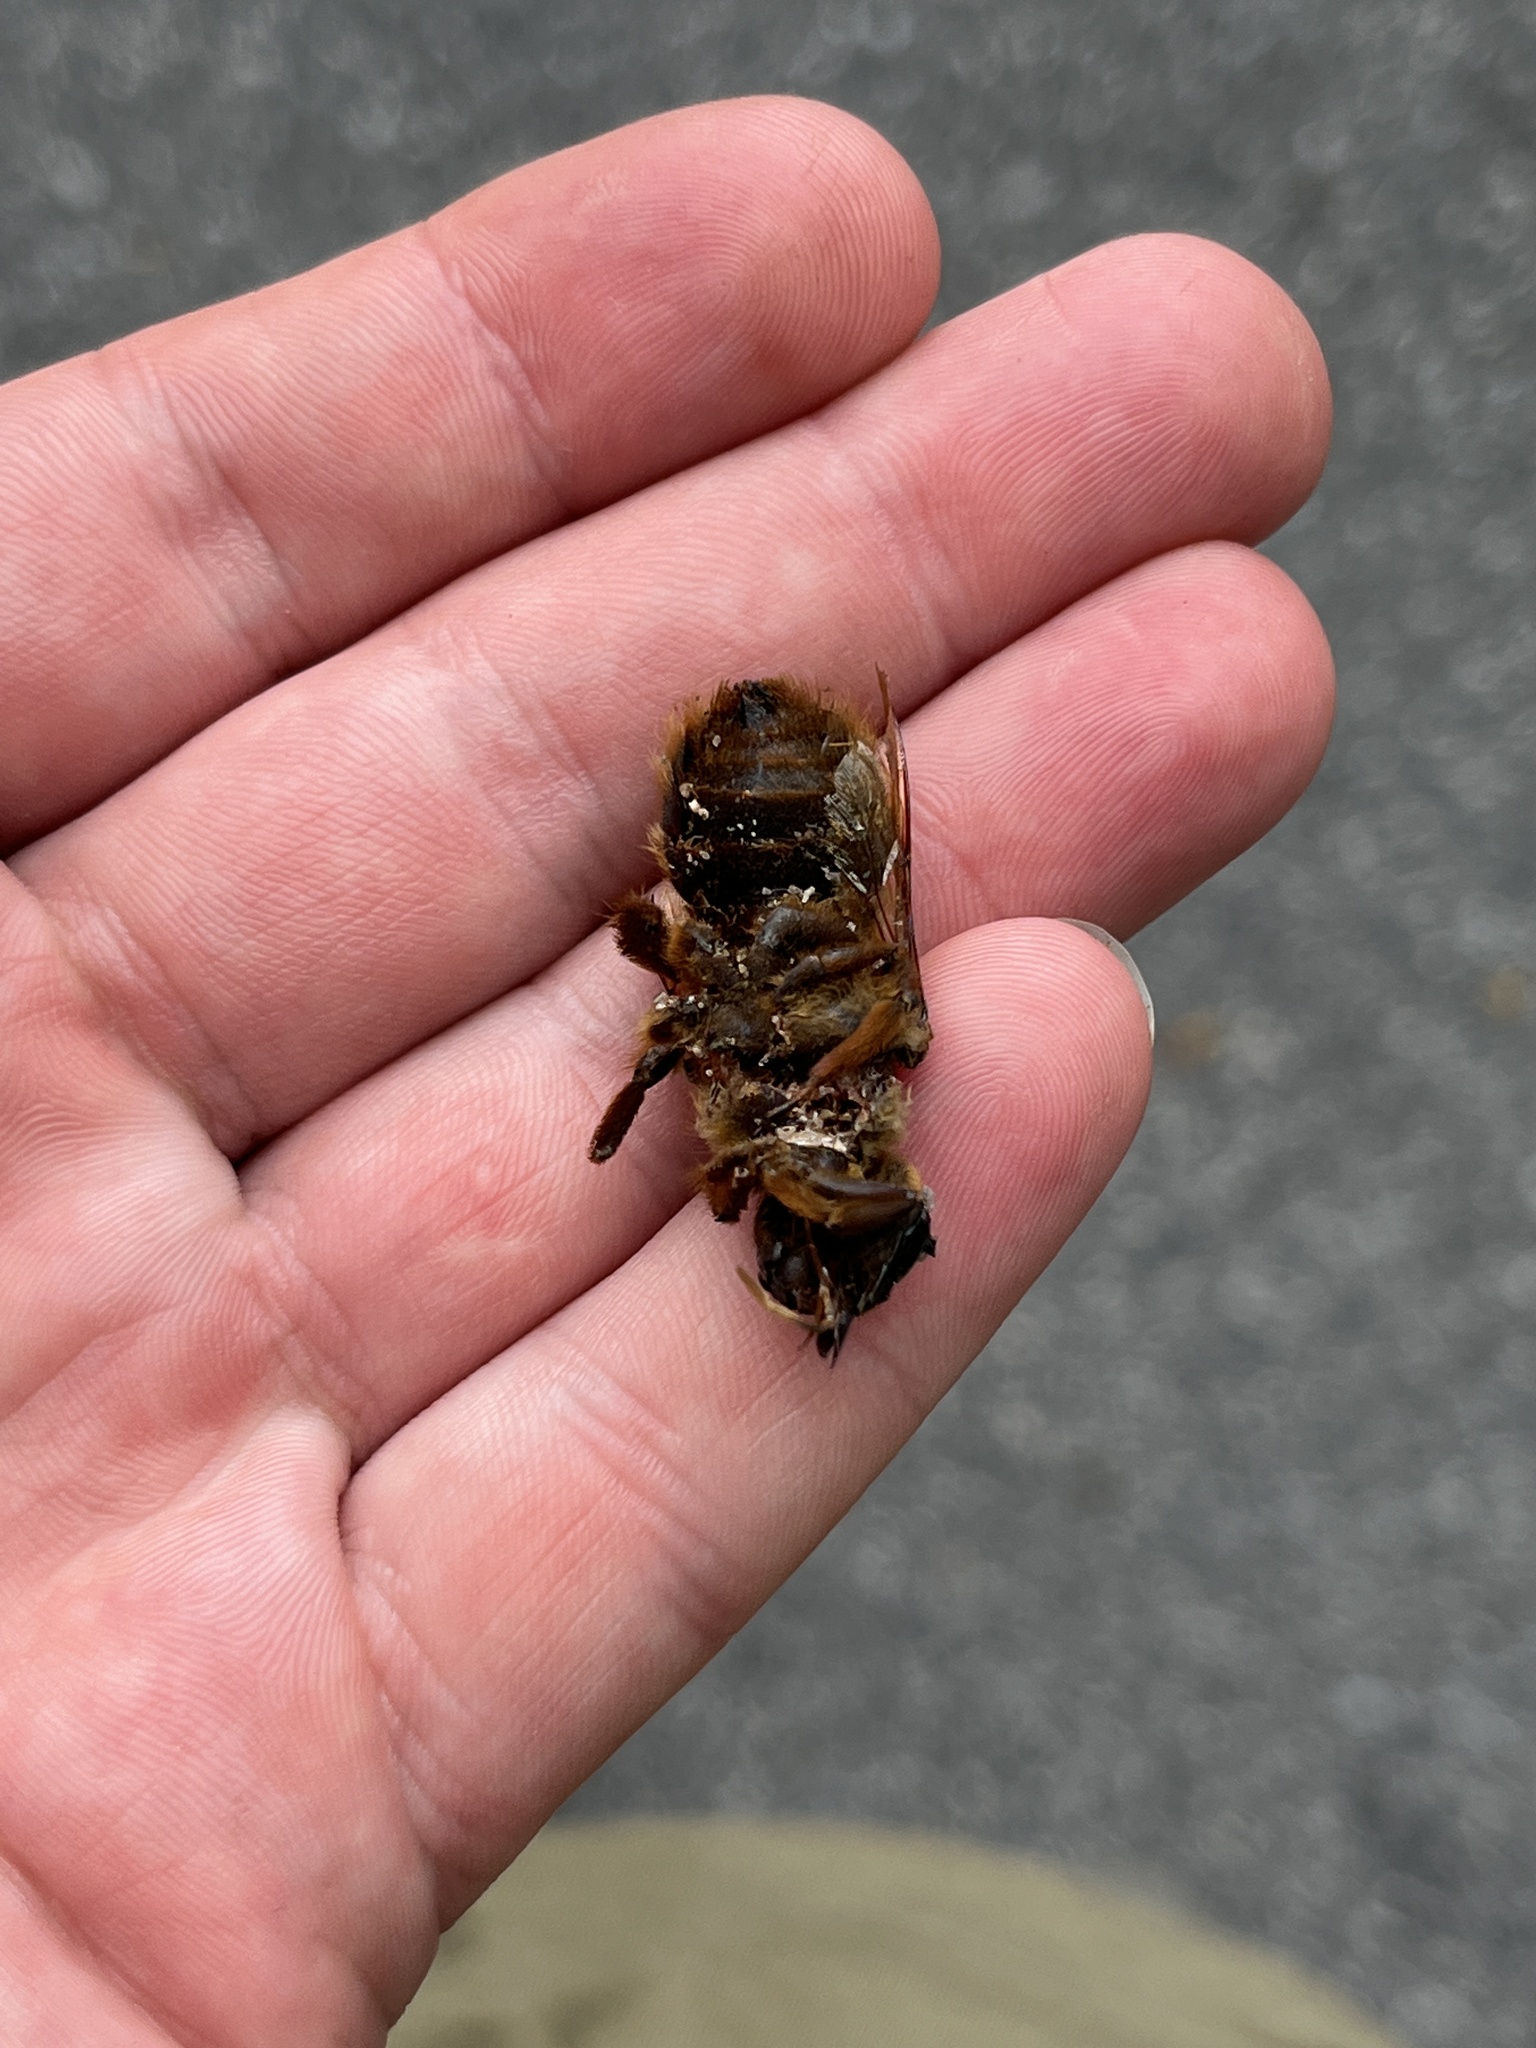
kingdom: Animalia
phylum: Arthropoda
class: Insecta
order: Hymenoptera
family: Apidae
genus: Xylocopa
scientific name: Xylocopa tranquebarica
